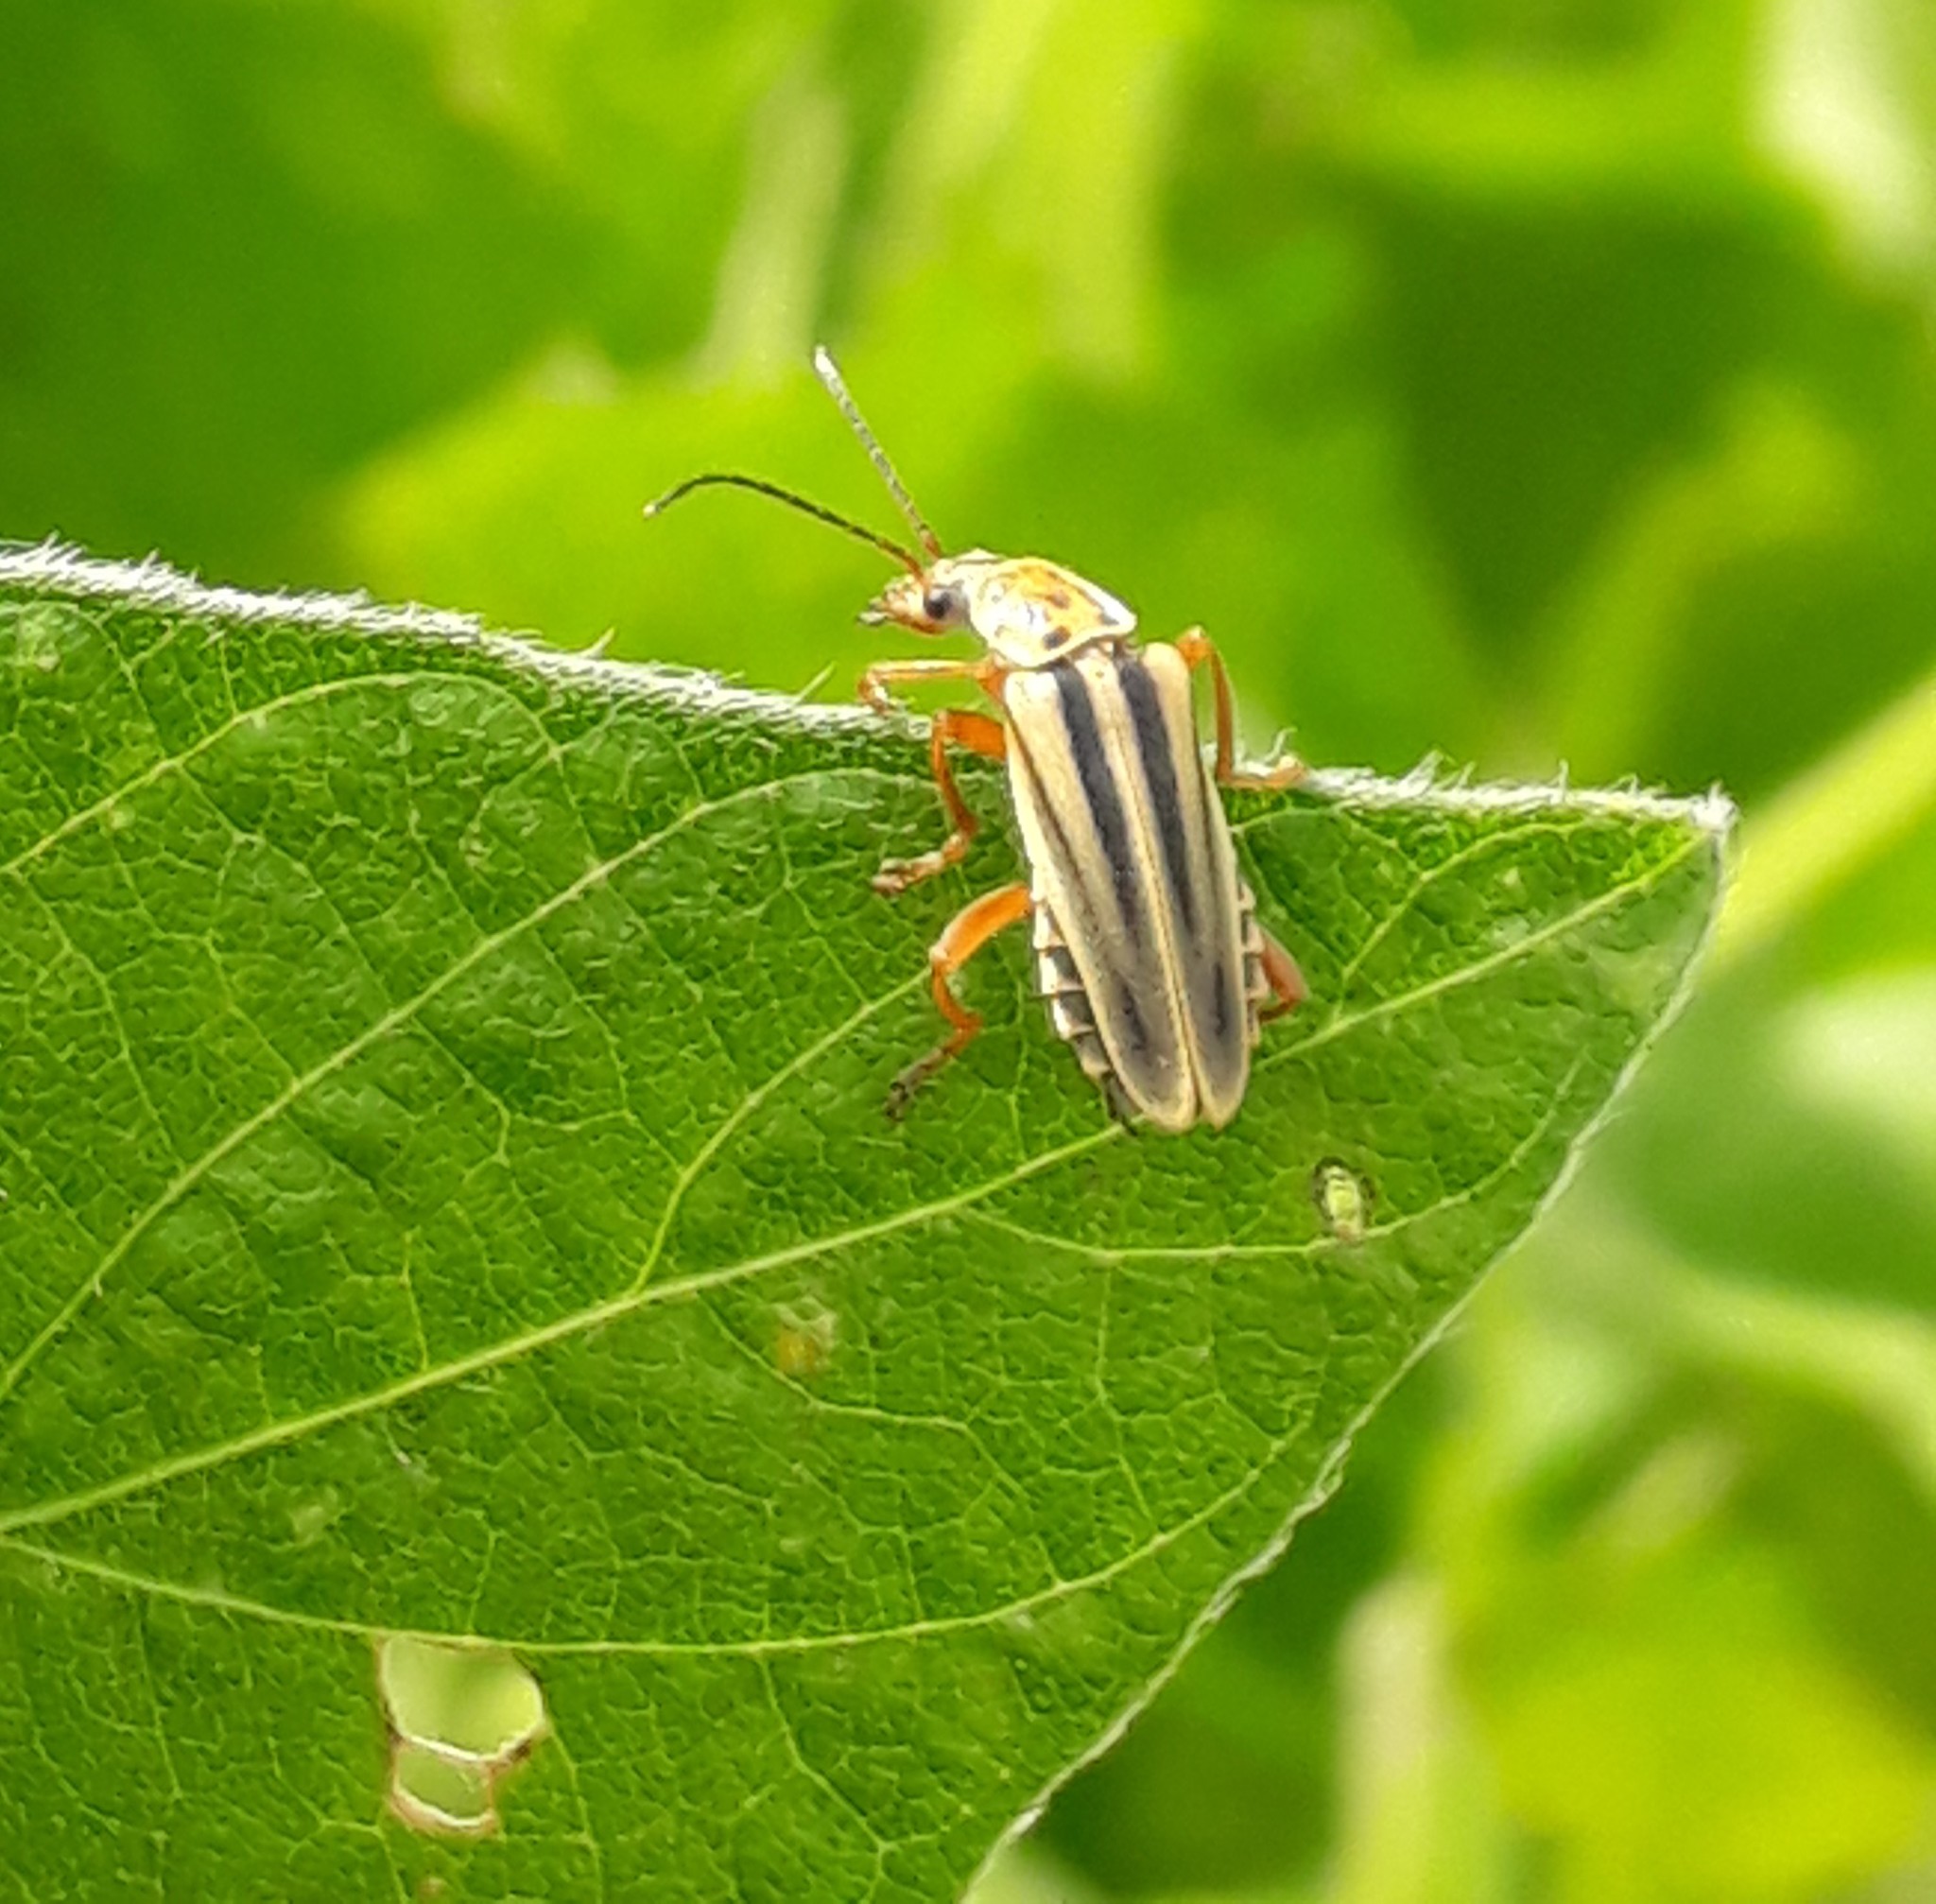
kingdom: Animalia
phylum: Arthropoda
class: Insecta
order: Coleoptera
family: Cantharidae
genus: Chauliognathus
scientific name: Chauliognathus
